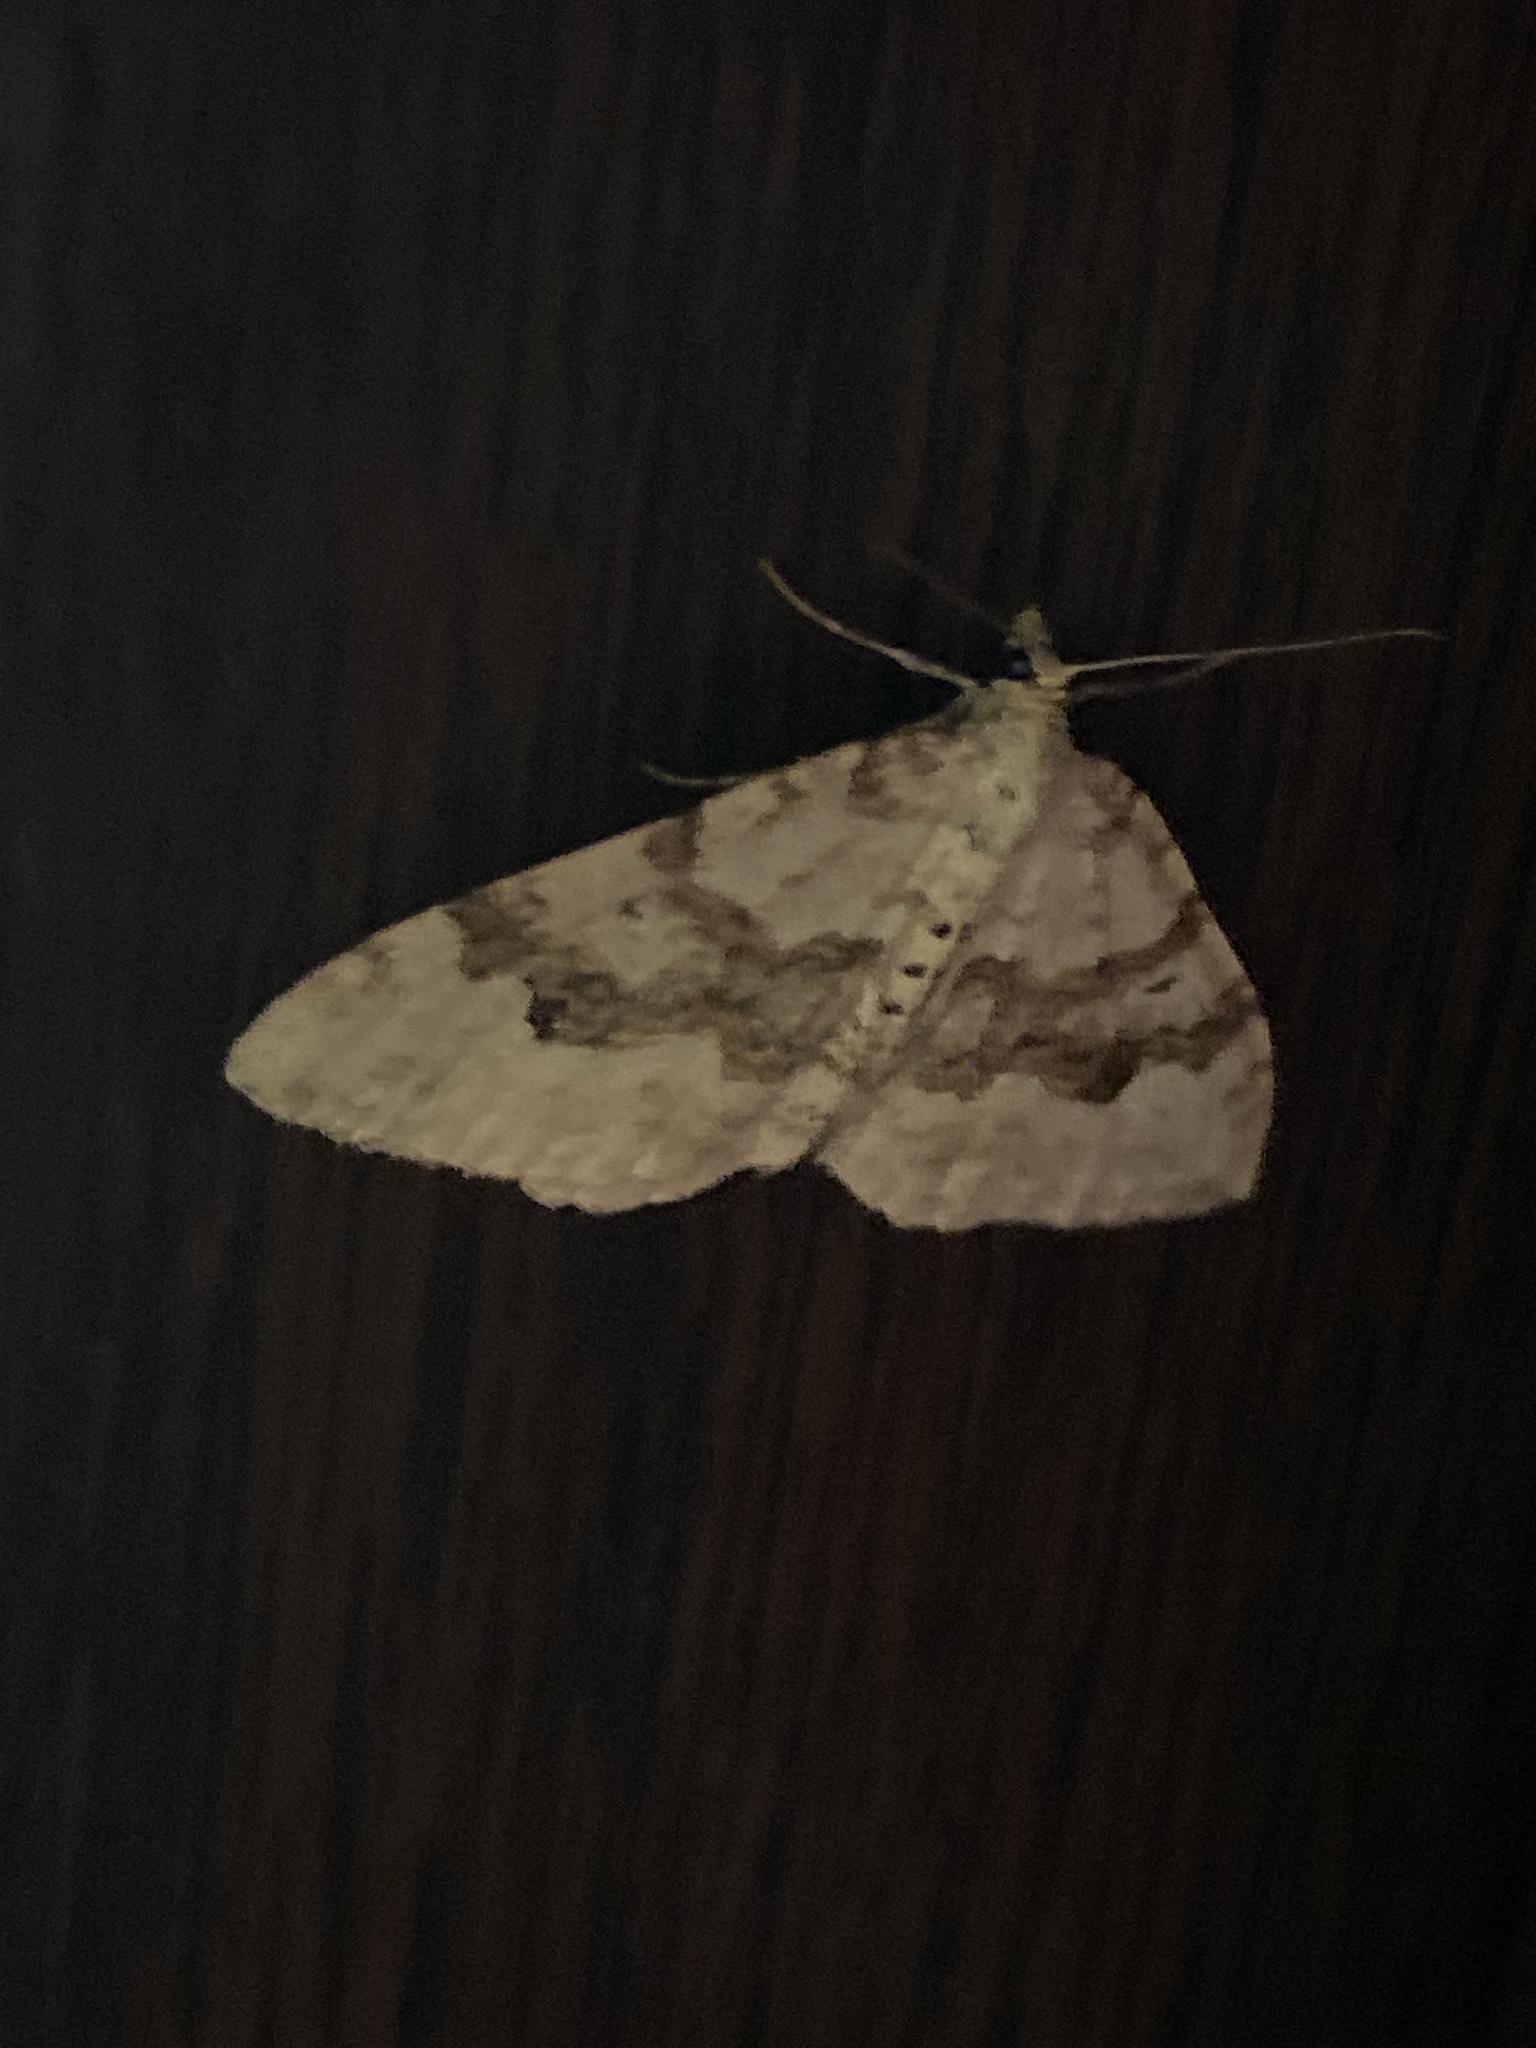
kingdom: Animalia
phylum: Arthropoda
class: Insecta
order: Lepidoptera
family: Geometridae
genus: Xanthorhoe
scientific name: Xanthorhoe montanata
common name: Silver-ground carpet
